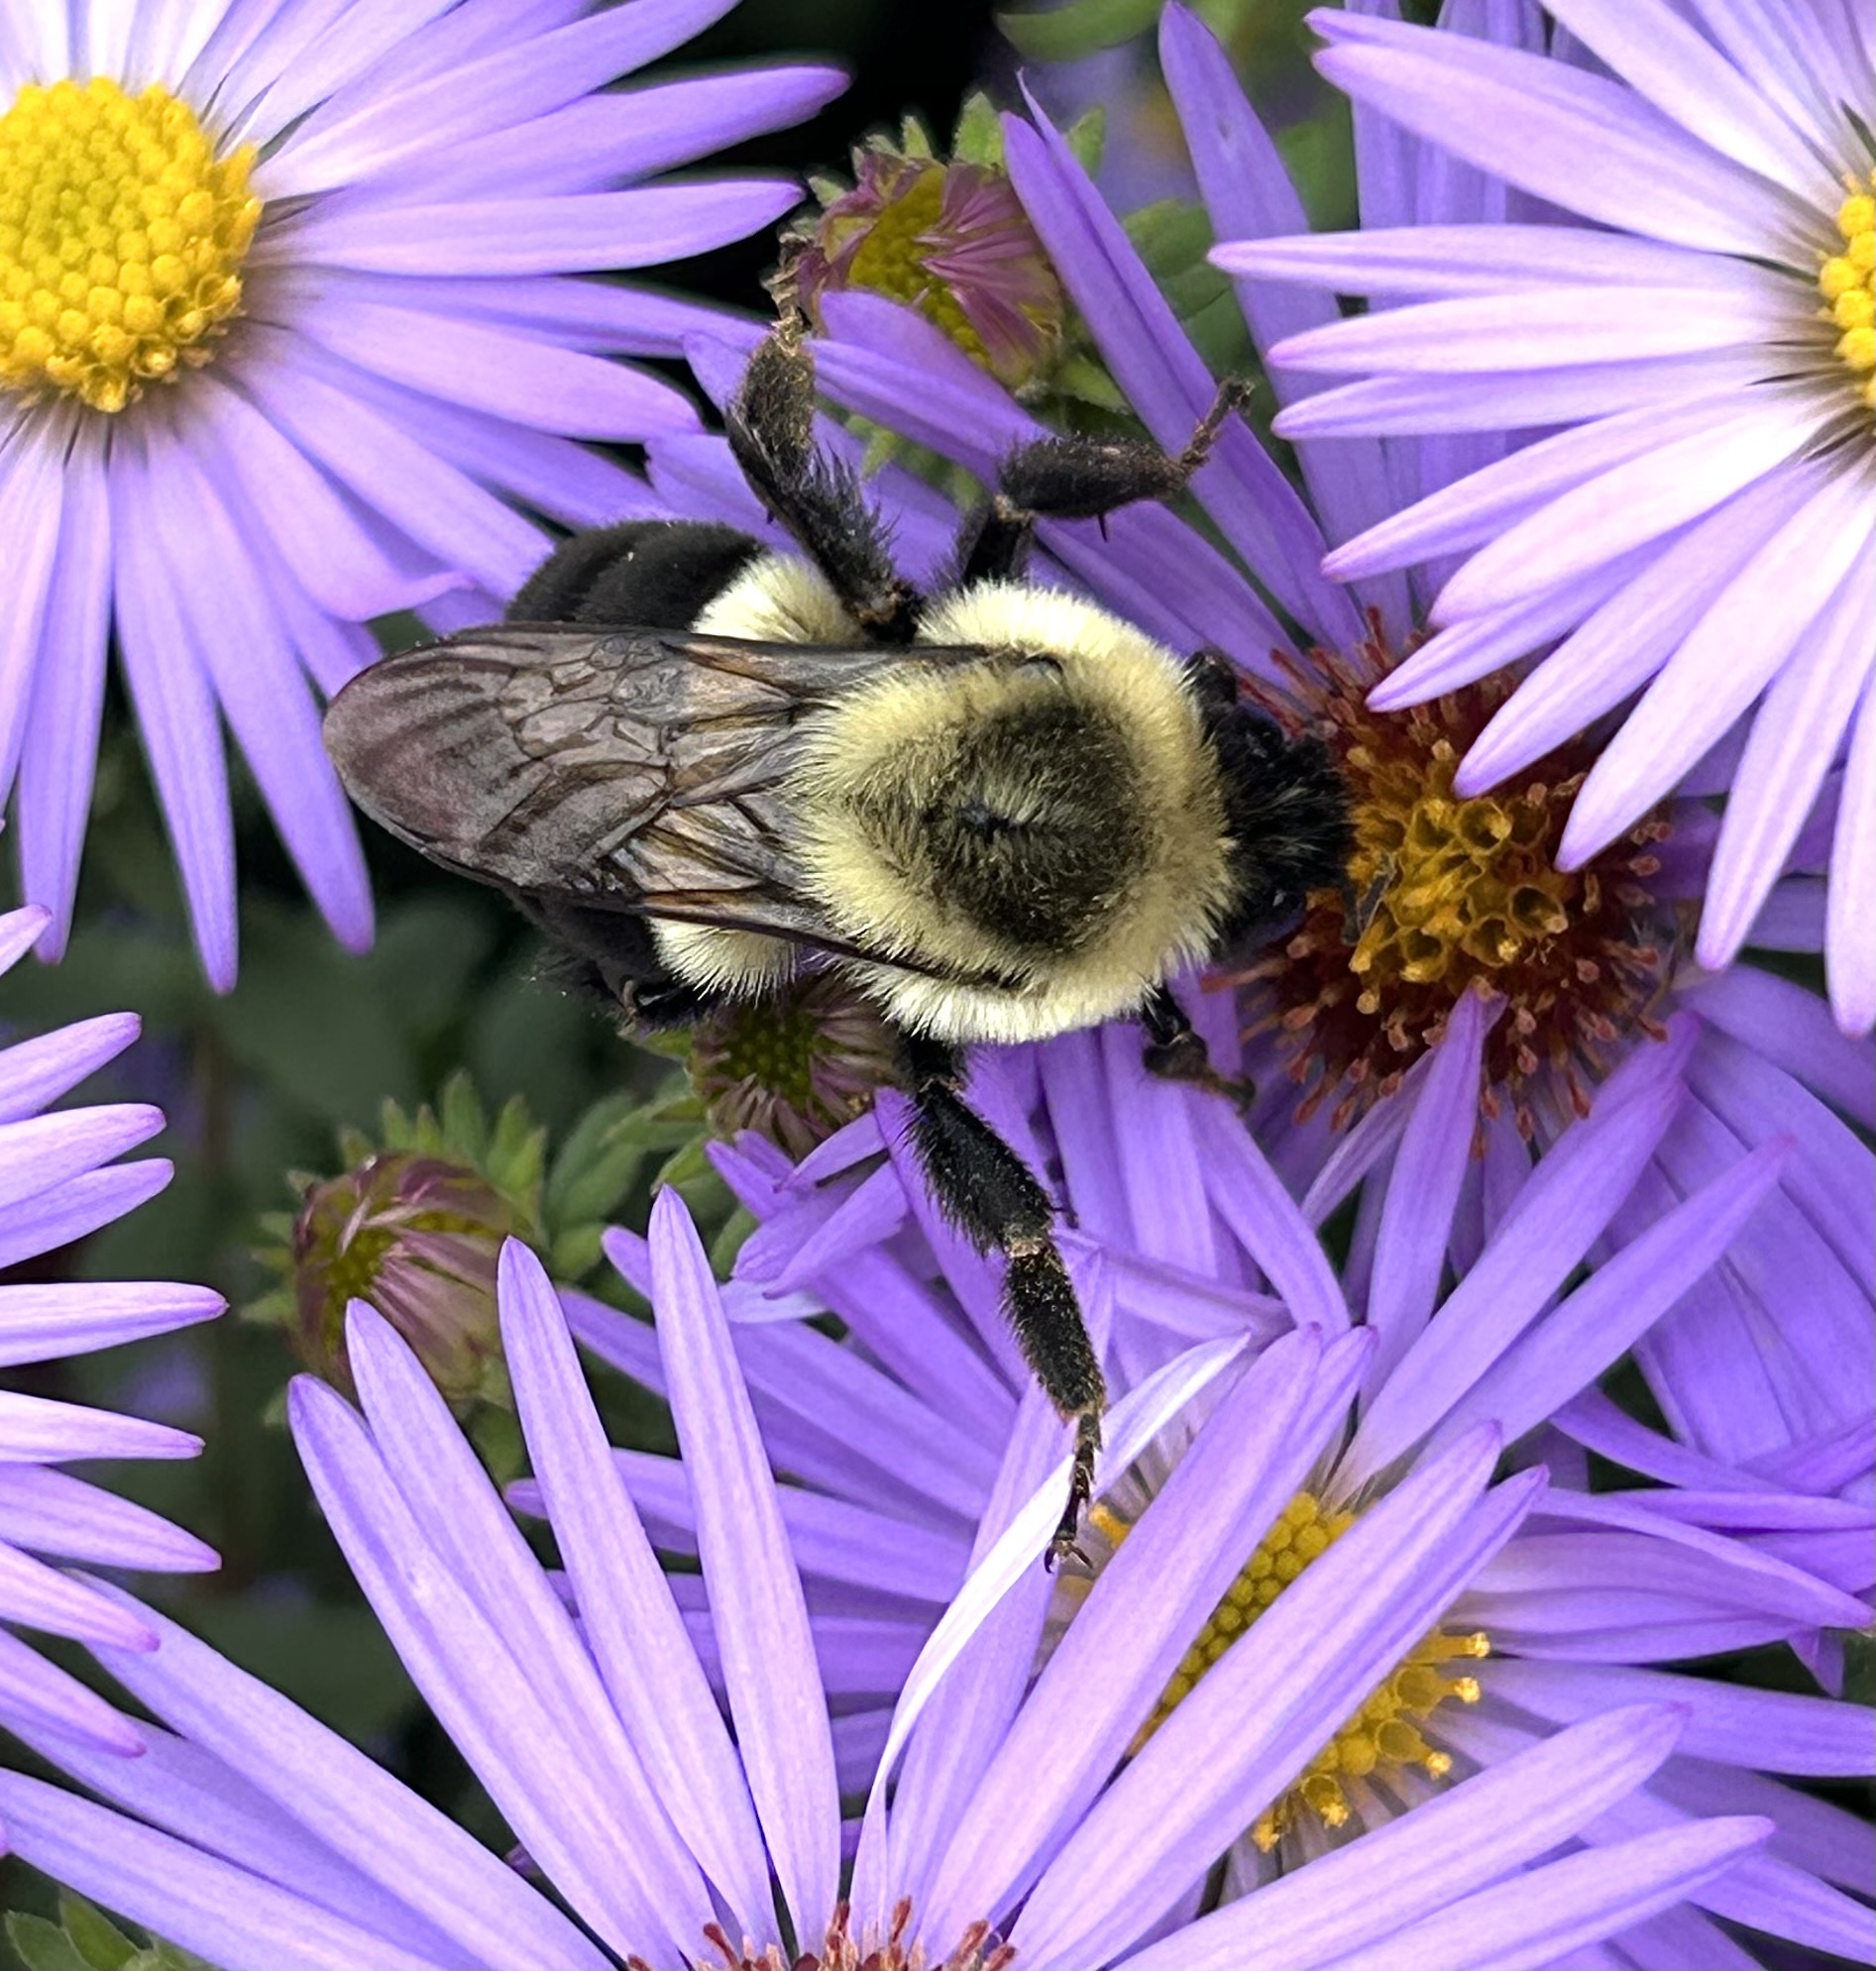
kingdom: Animalia
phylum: Arthropoda
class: Insecta
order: Hymenoptera
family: Apidae
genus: Bombus
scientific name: Bombus impatiens
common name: Common eastern bumble bee
